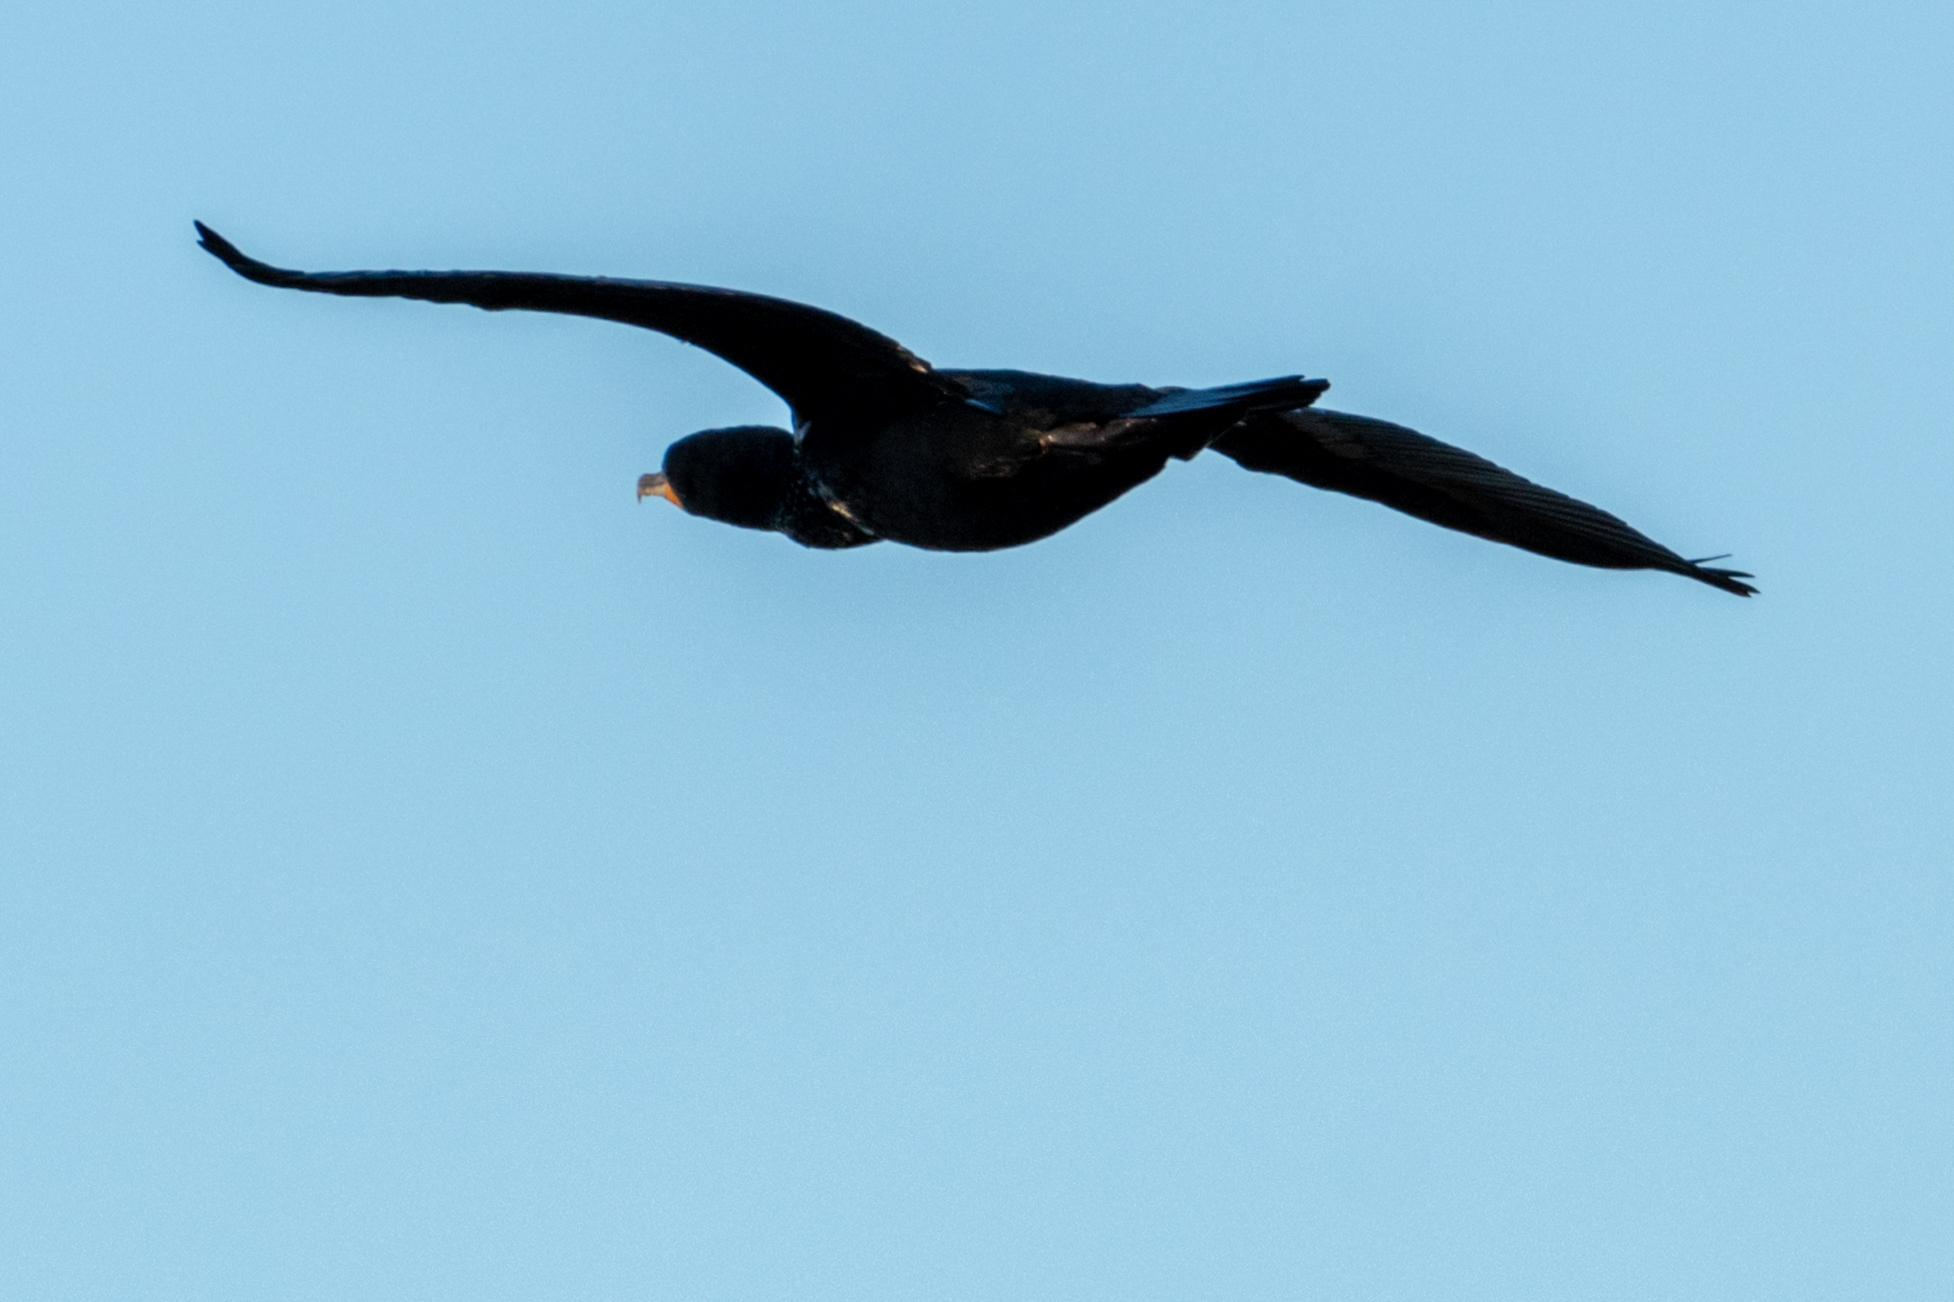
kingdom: Animalia
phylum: Chordata
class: Aves
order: Suliformes
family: Phalacrocoracidae
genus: Phalacrocorax
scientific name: Phalacrocorax auritus
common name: Double-crested cormorant
